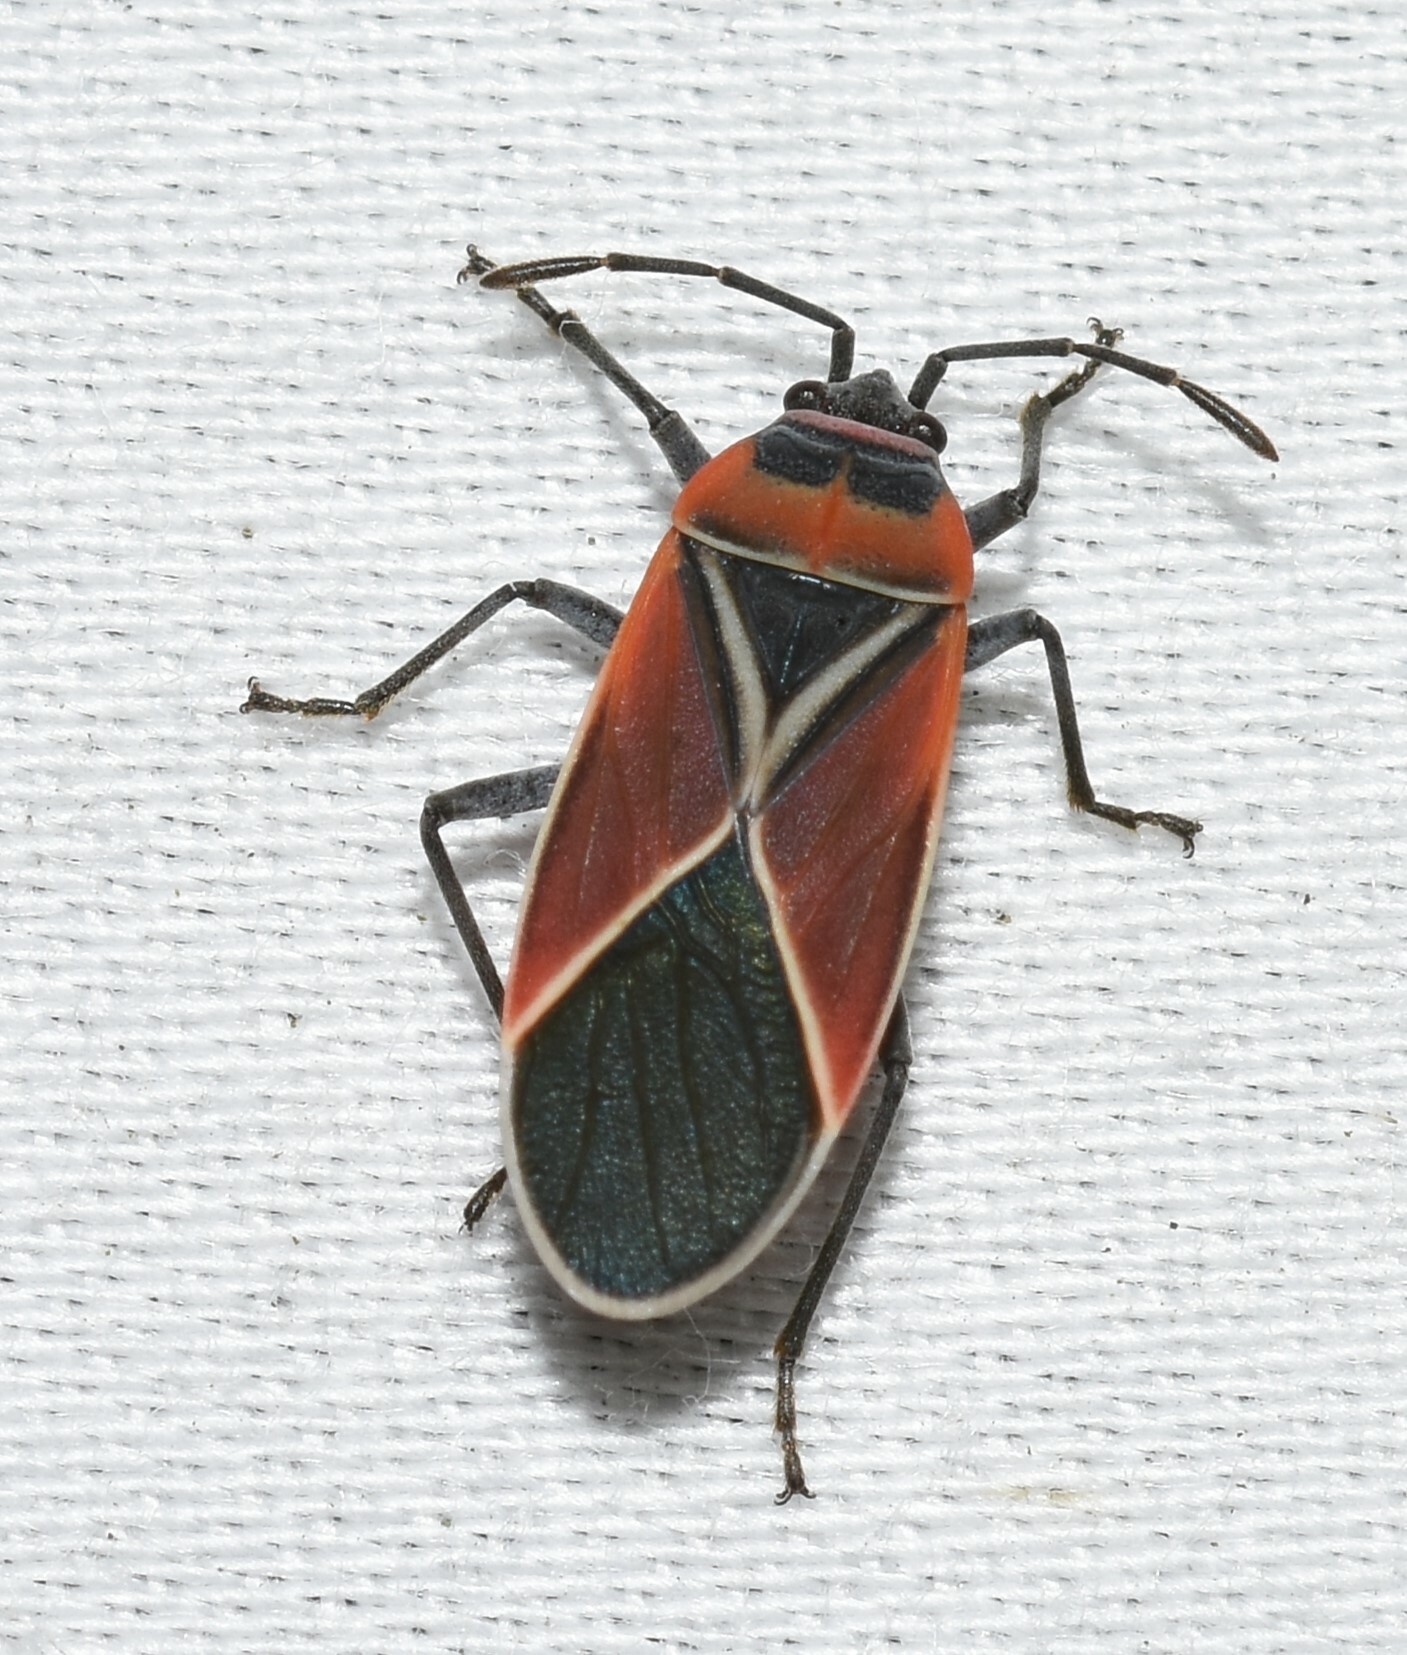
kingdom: Animalia
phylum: Arthropoda
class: Insecta
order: Hemiptera
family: Lygaeidae
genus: Neacoryphus
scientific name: Neacoryphus bicrucis
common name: Lygaeid bug
